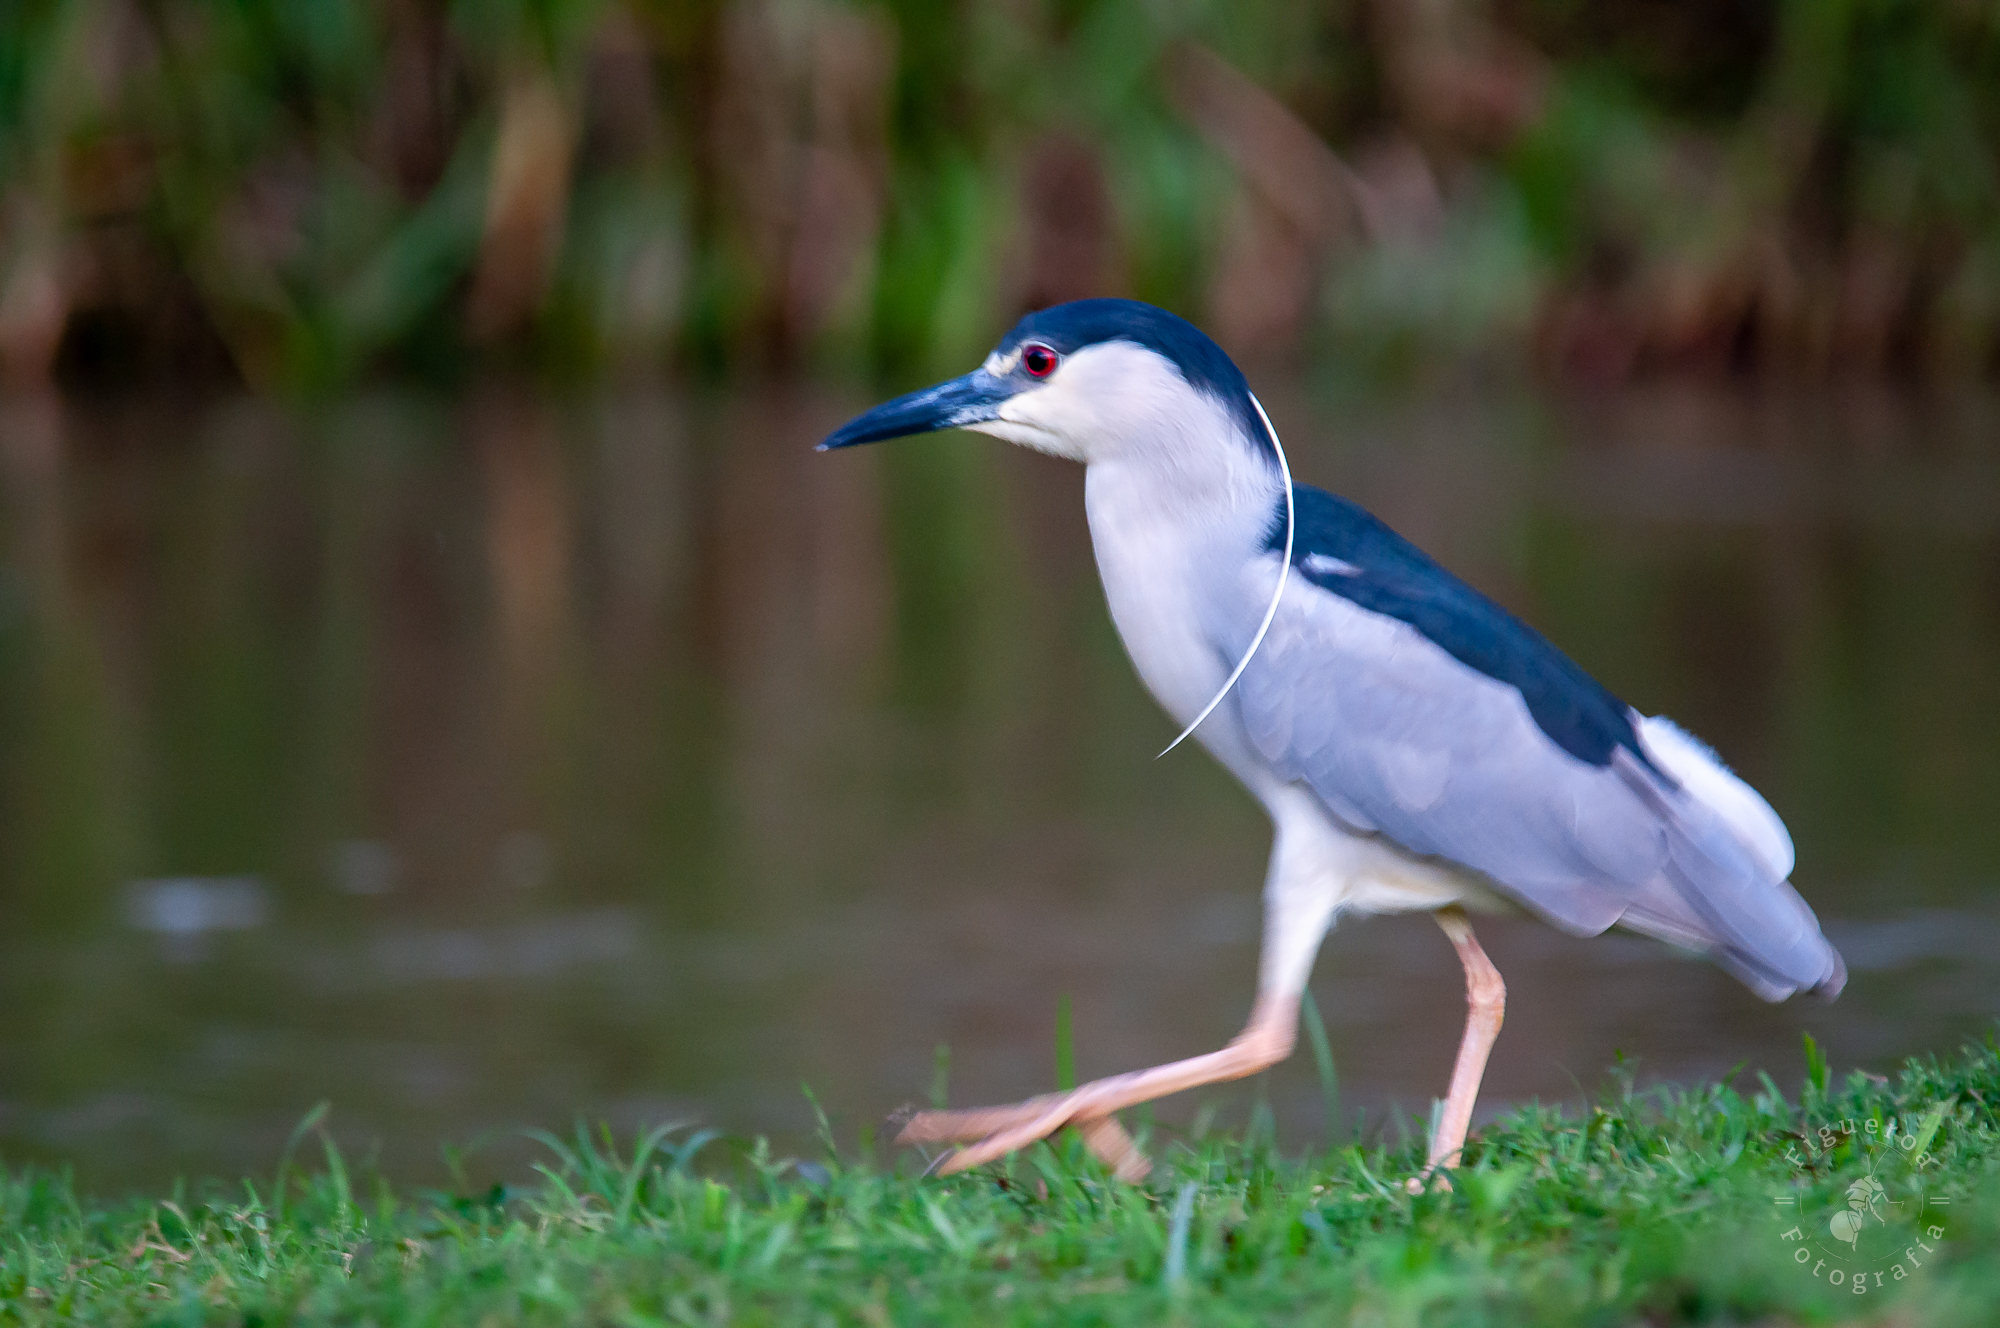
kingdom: Animalia
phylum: Chordata
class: Aves
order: Pelecaniformes
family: Ardeidae
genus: Nycticorax
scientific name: Nycticorax nycticorax
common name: Black-crowned night heron
